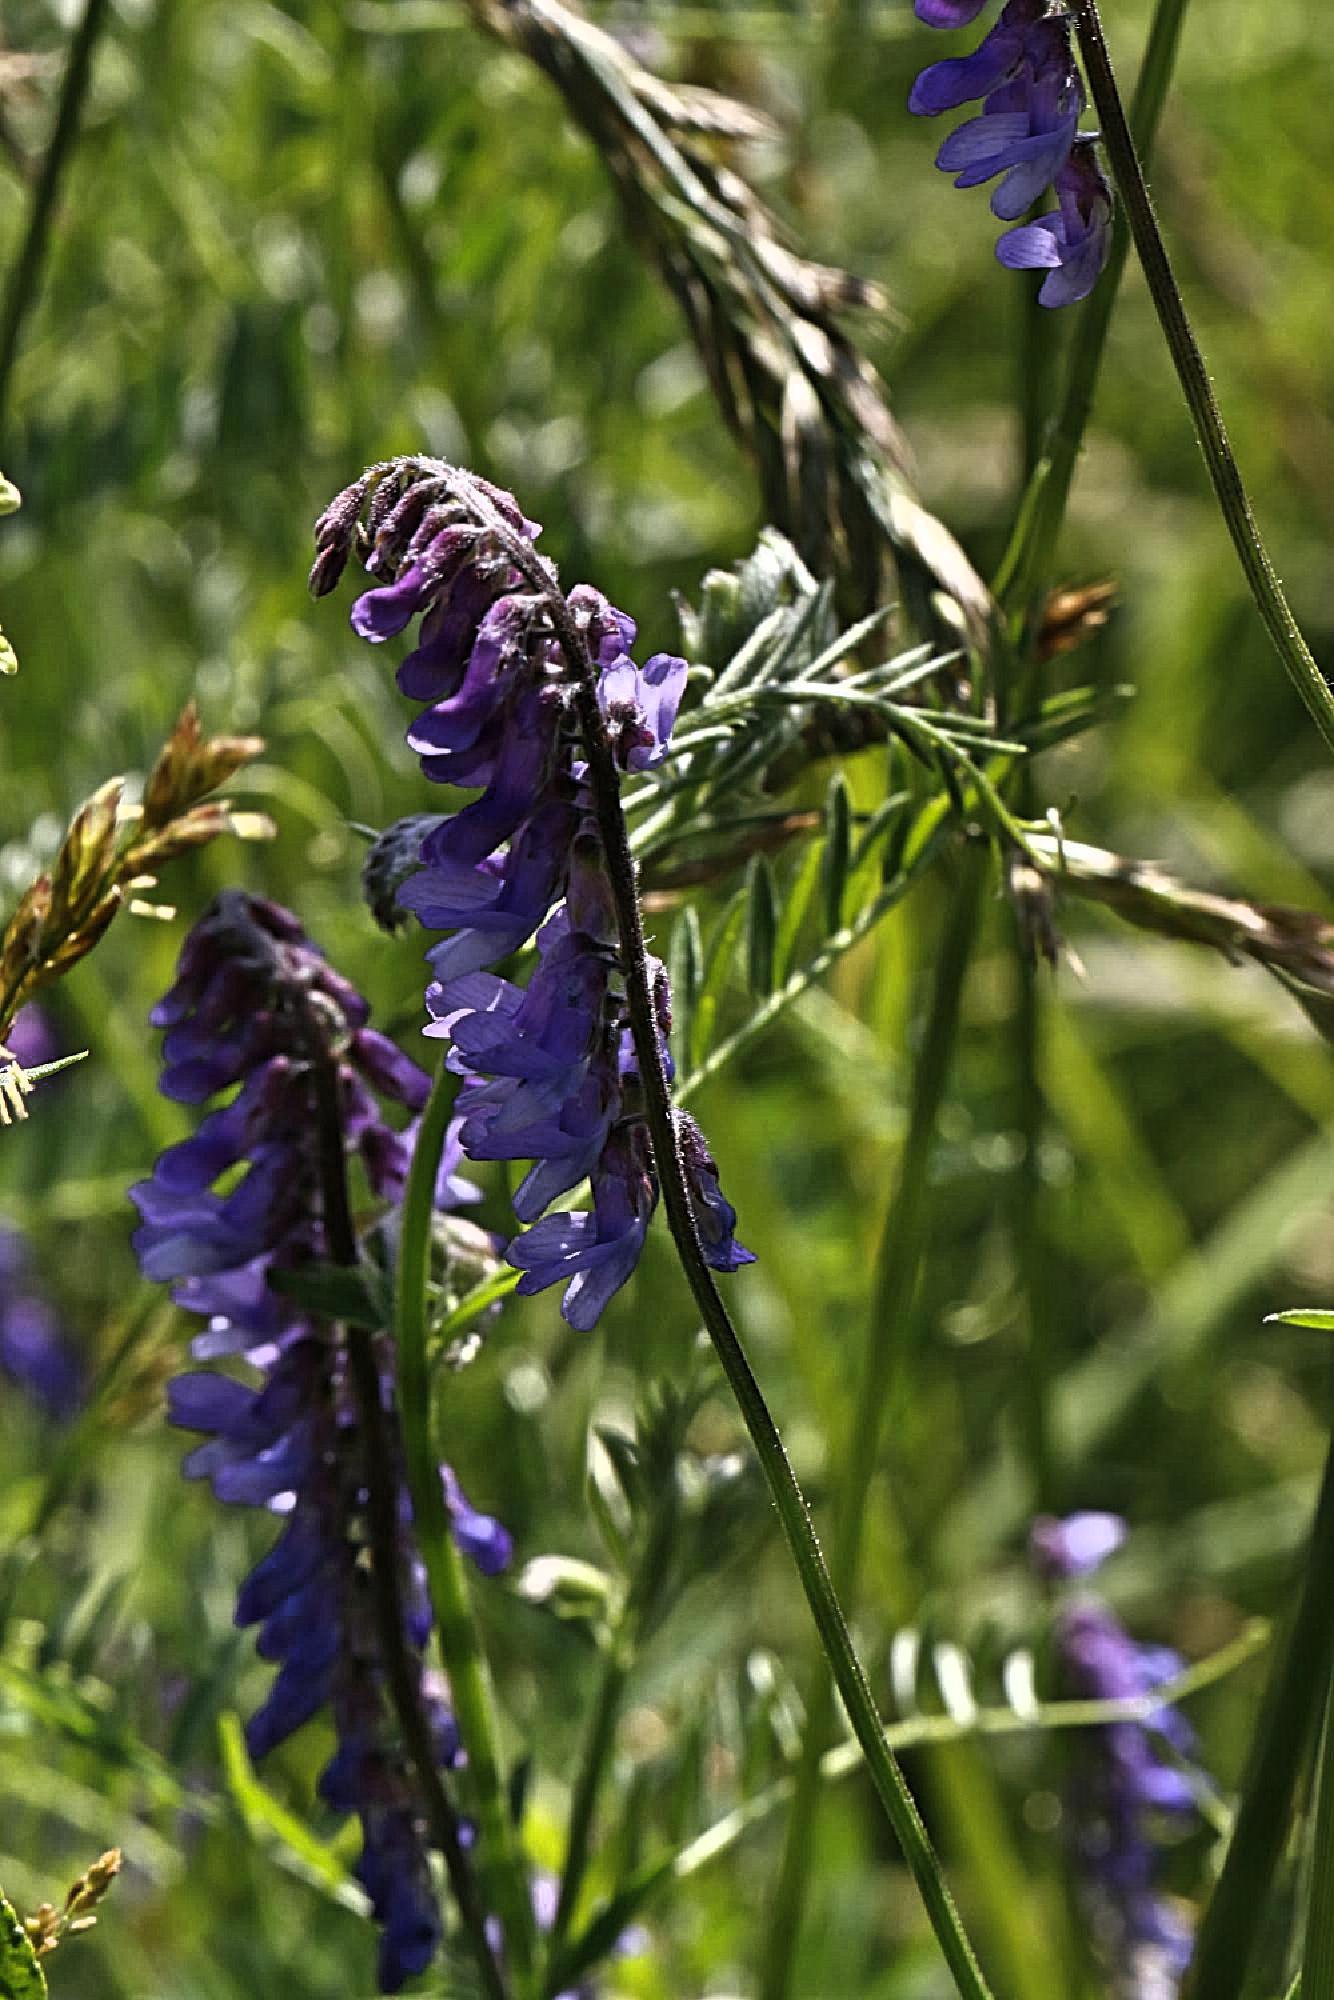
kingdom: Plantae
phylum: Tracheophyta
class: Magnoliopsida
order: Fabales
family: Fabaceae
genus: Vicia
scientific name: Vicia cracca
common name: Bird vetch
